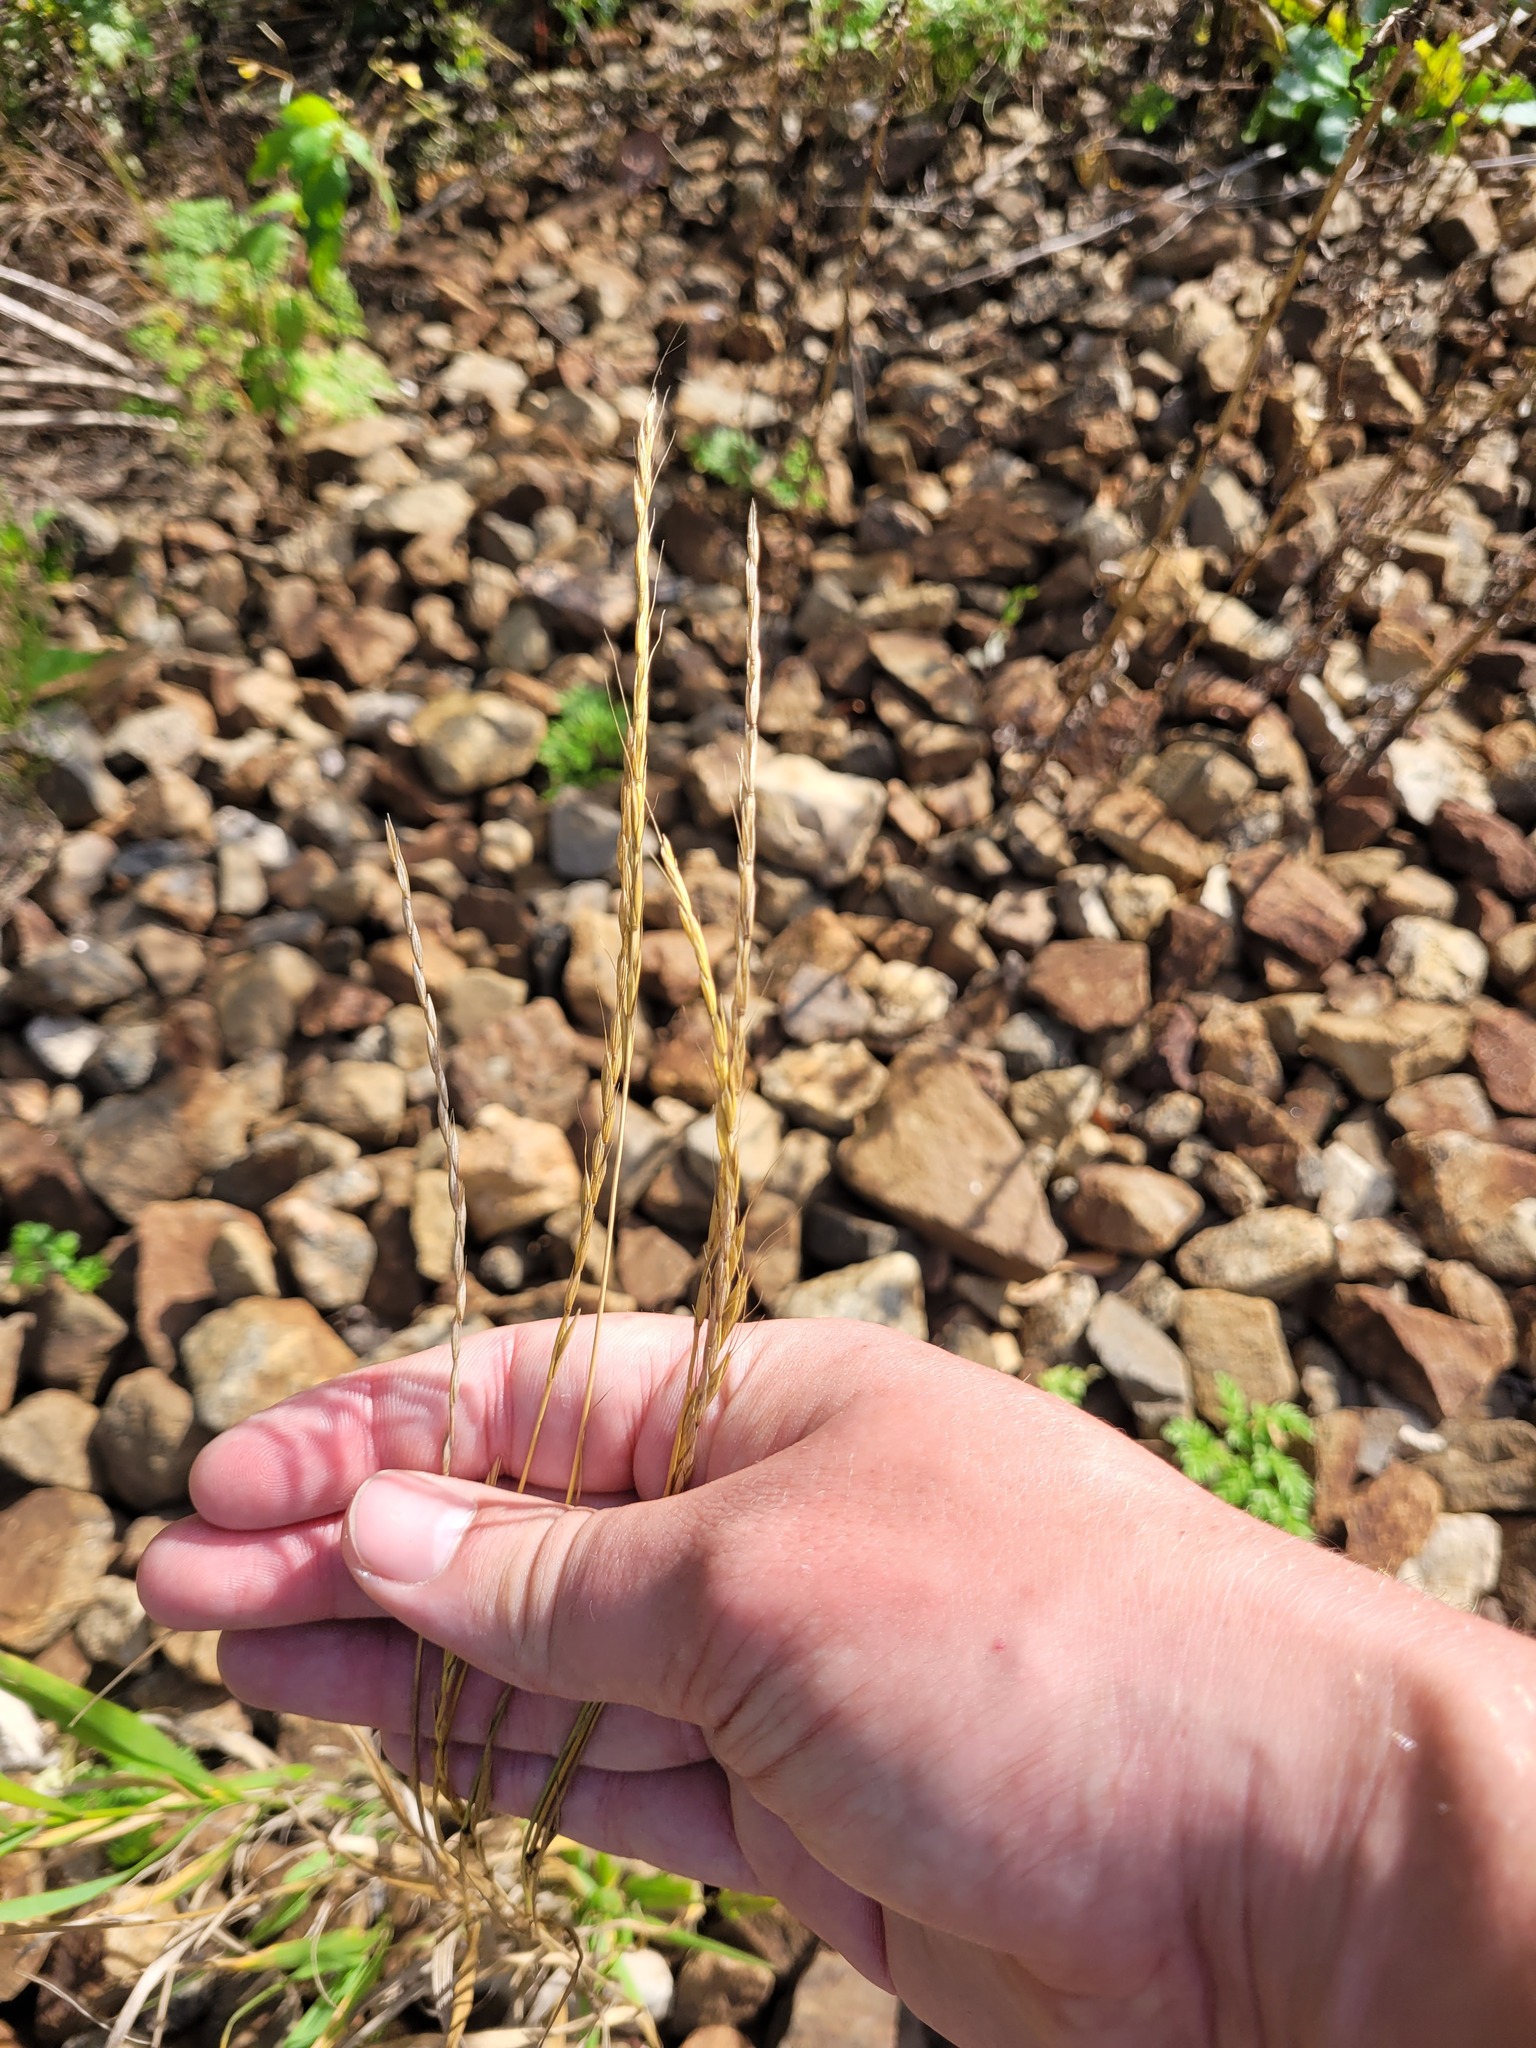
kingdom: Plantae
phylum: Tracheophyta
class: Liliopsida
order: Poales
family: Poaceae
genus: Elymus
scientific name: Elymus caninus
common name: Bearded couch
